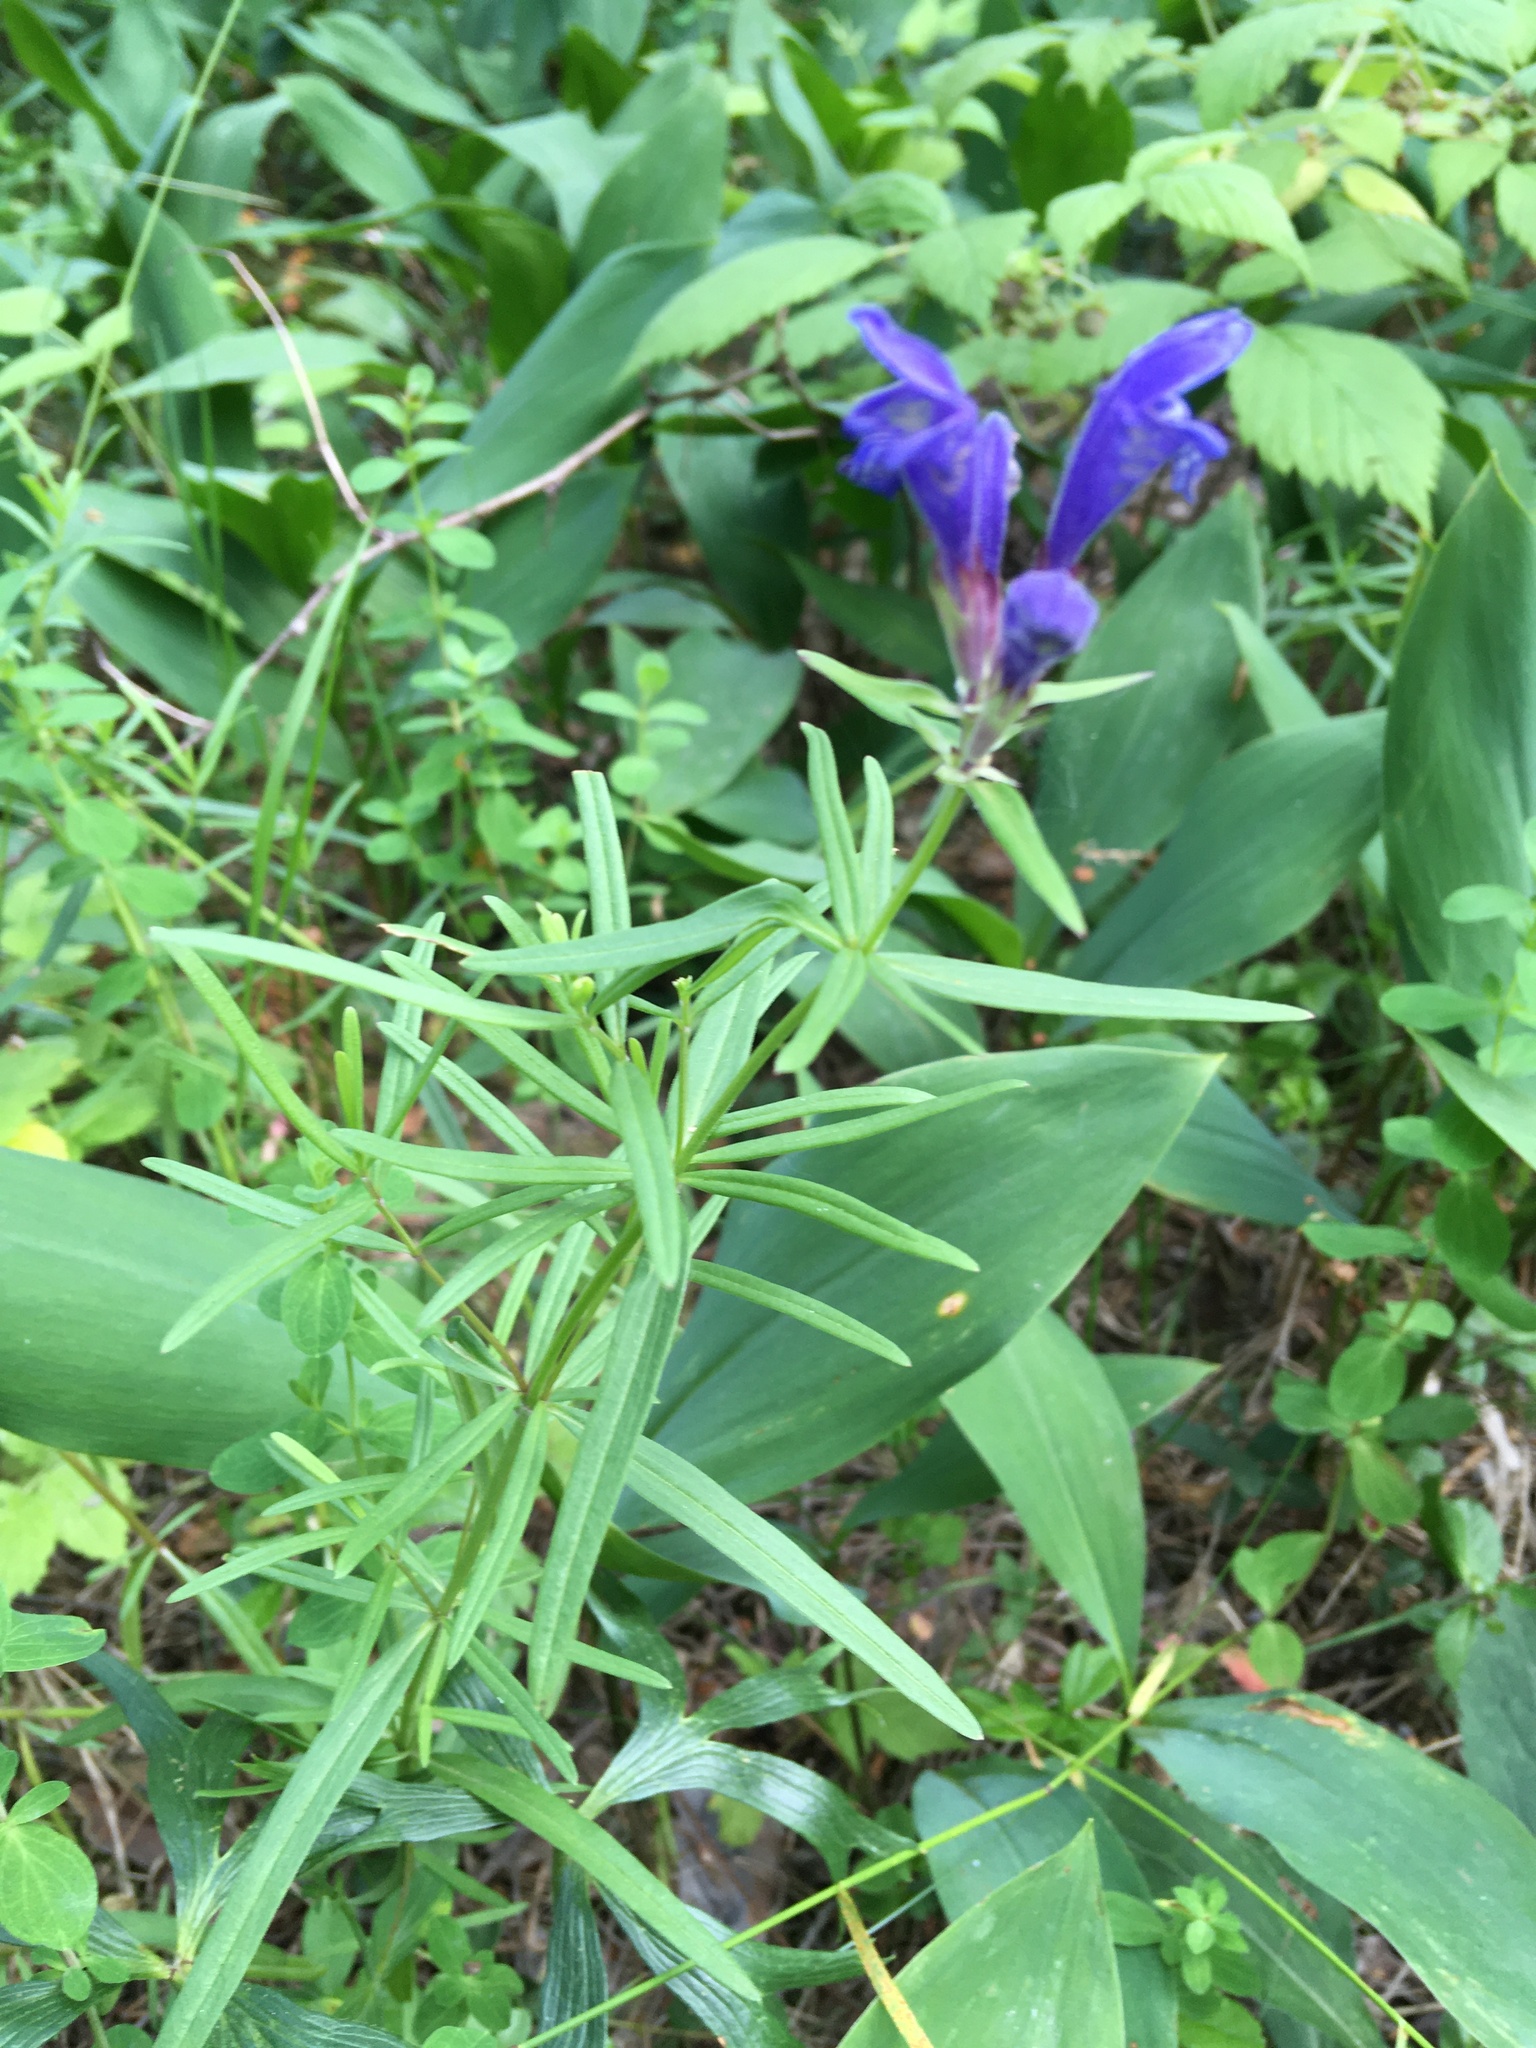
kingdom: Plantae
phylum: Tracheophyta
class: Magnoliopsida
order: Lamiales
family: Lamiaceae
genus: Dracocephalum
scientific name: Dracocephalum ruyschiana
